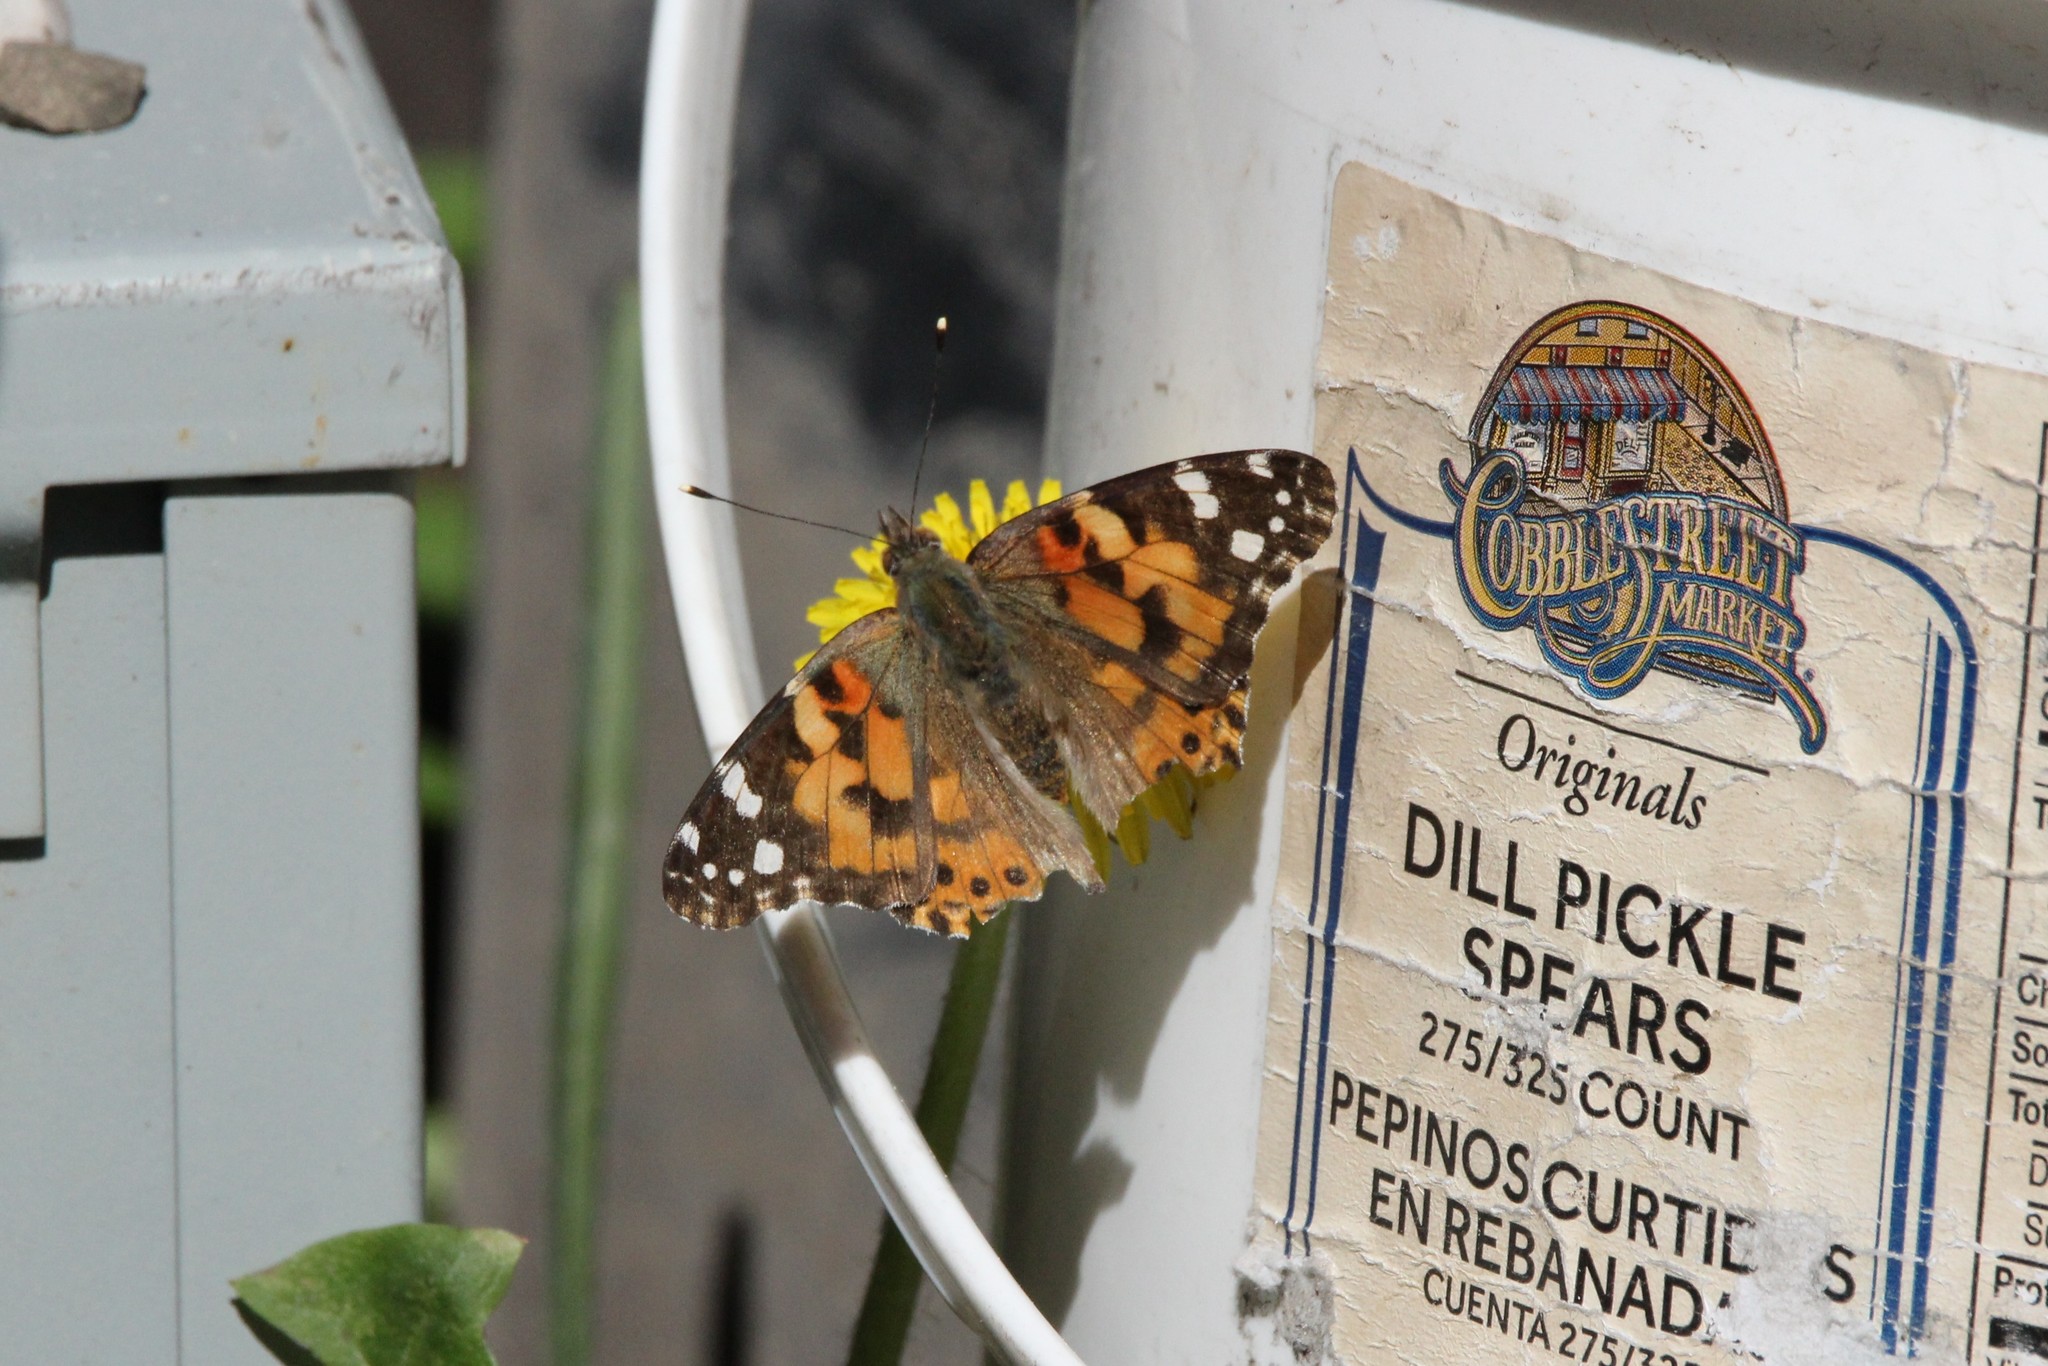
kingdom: Animalia
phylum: Arthropoda
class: Insecta
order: Lepidoptera
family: Nymphalidae
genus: Vanessa
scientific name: Vanessa cardui
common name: Painted lady
